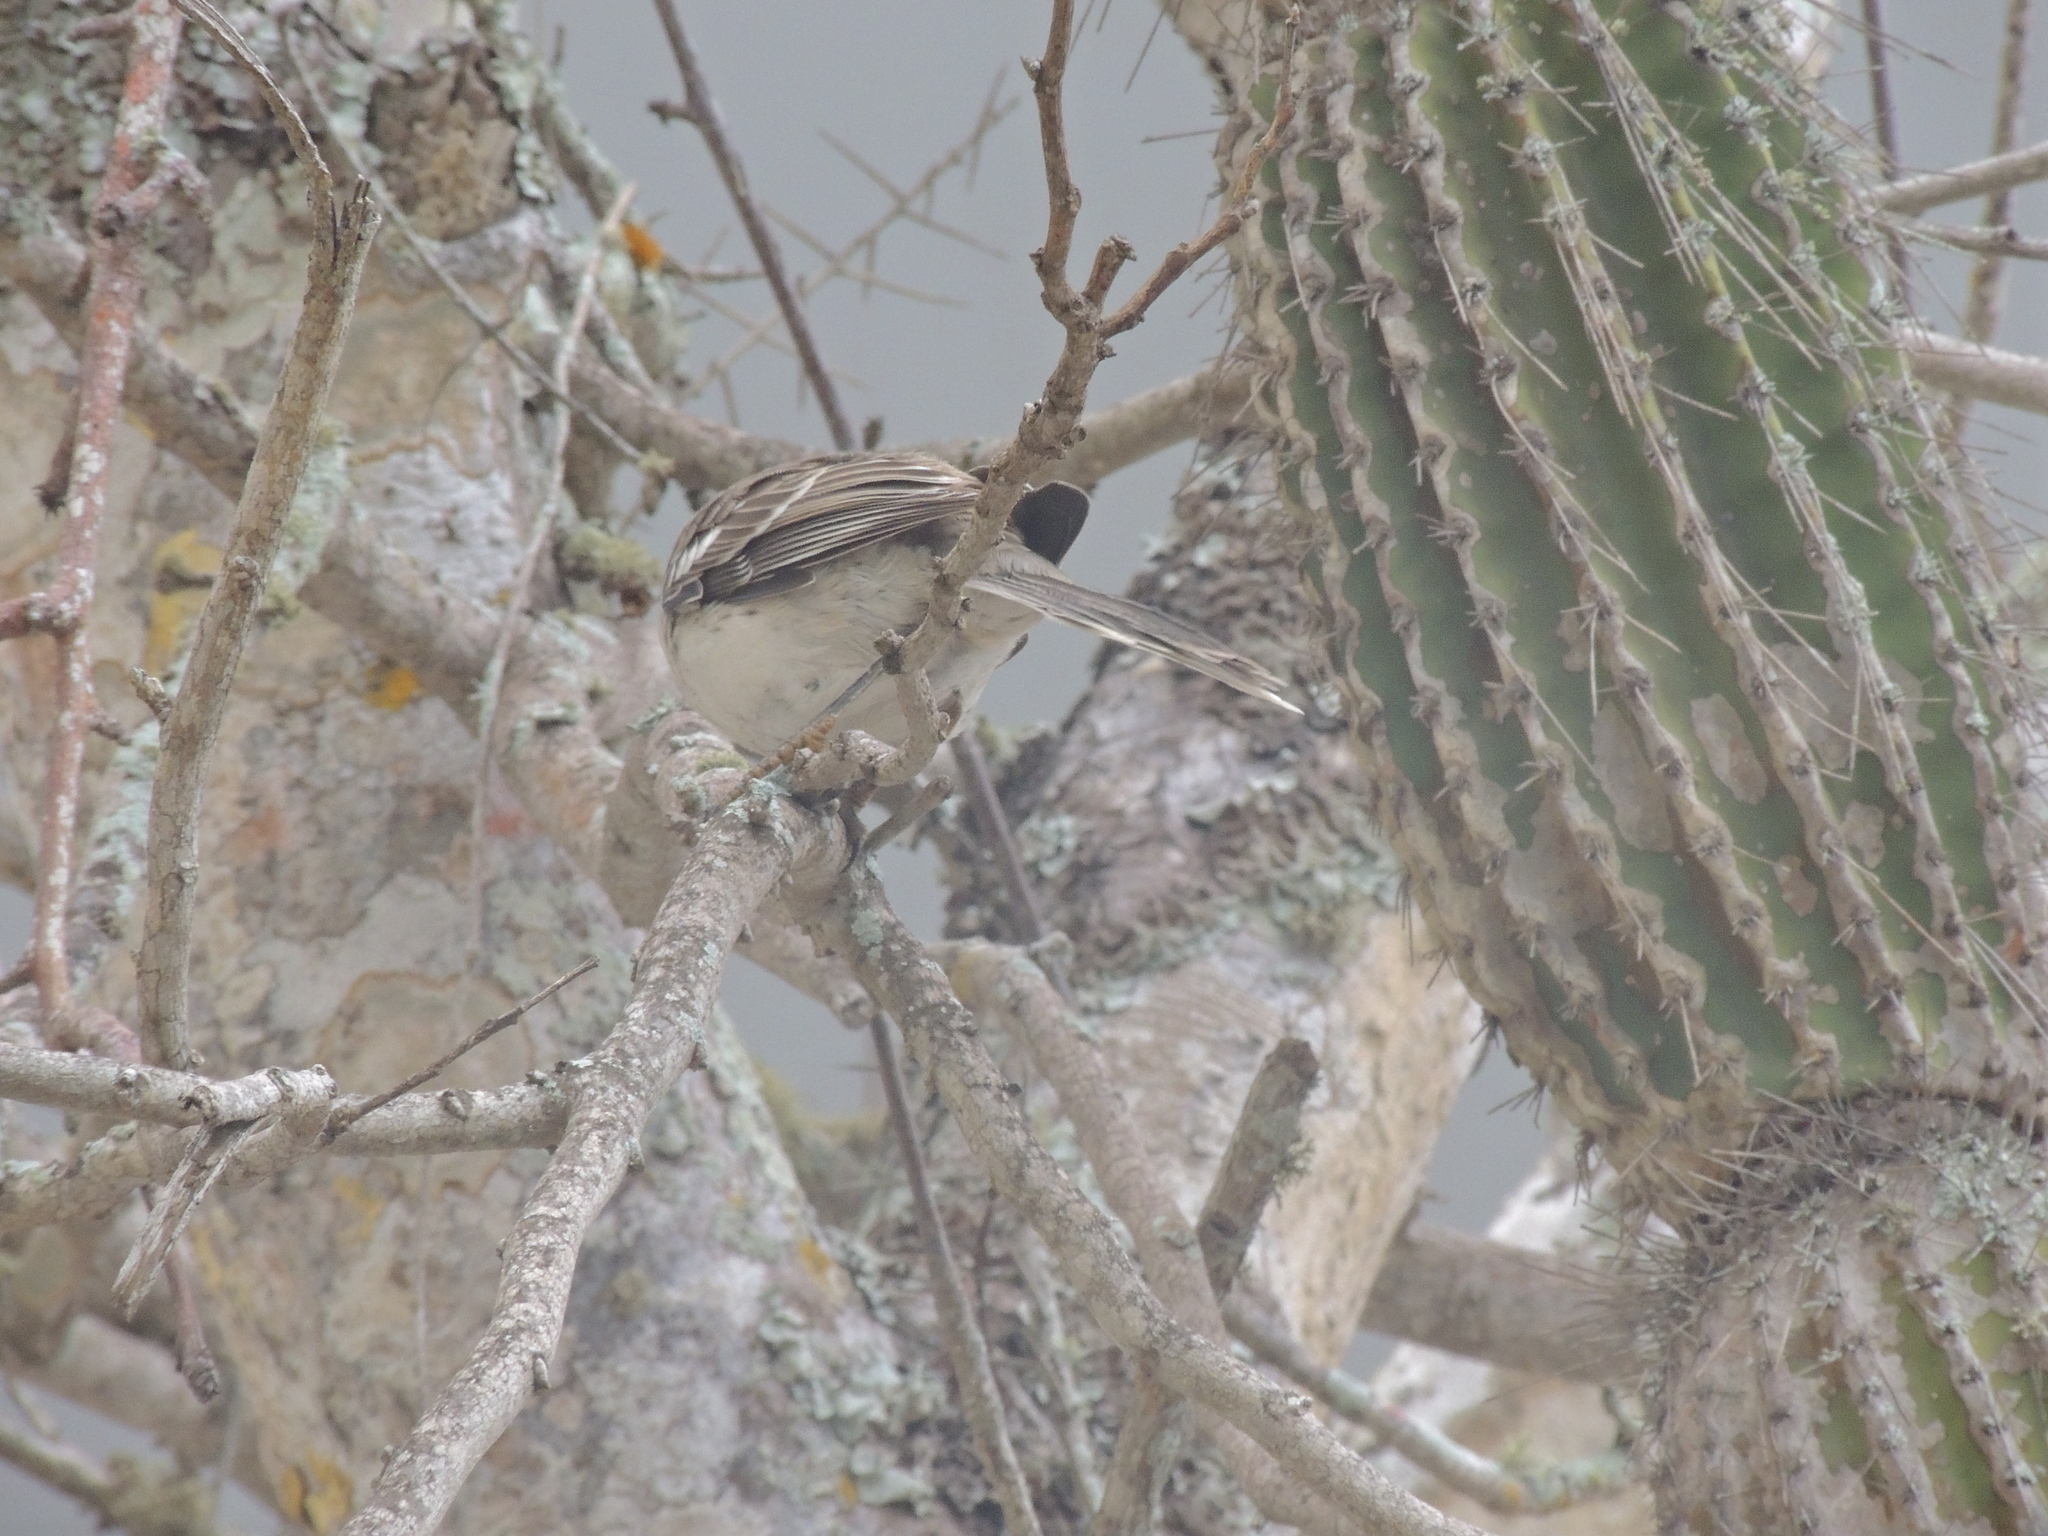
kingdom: Animalia
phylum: Chordata
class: Aves
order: Passeriformes
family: Mimidae
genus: Mimus
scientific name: Mimus parvulus
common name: Galapagos mockingbird
